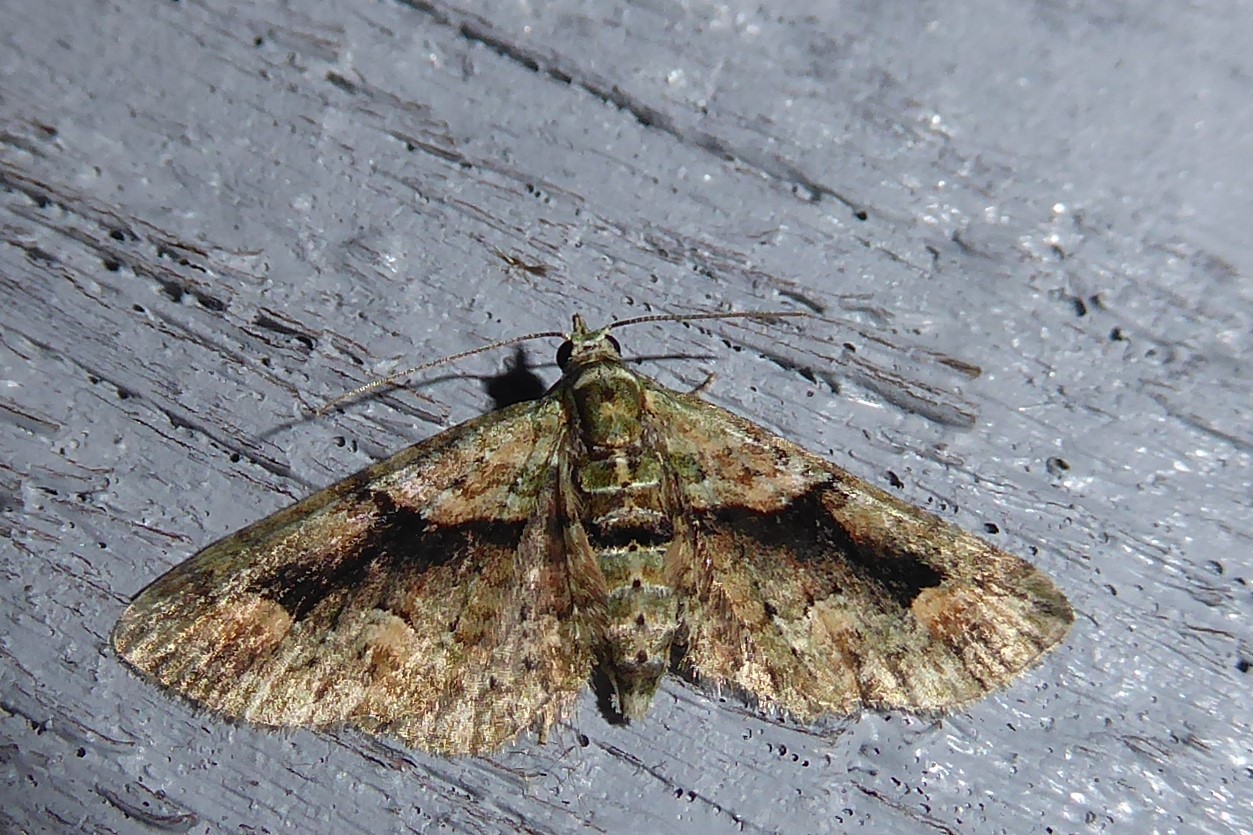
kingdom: Animalia
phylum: Arthropoda
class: Insecta
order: Lepidoptera
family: Geometridae
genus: Pasiphila
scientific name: Pasiphila suffusa
